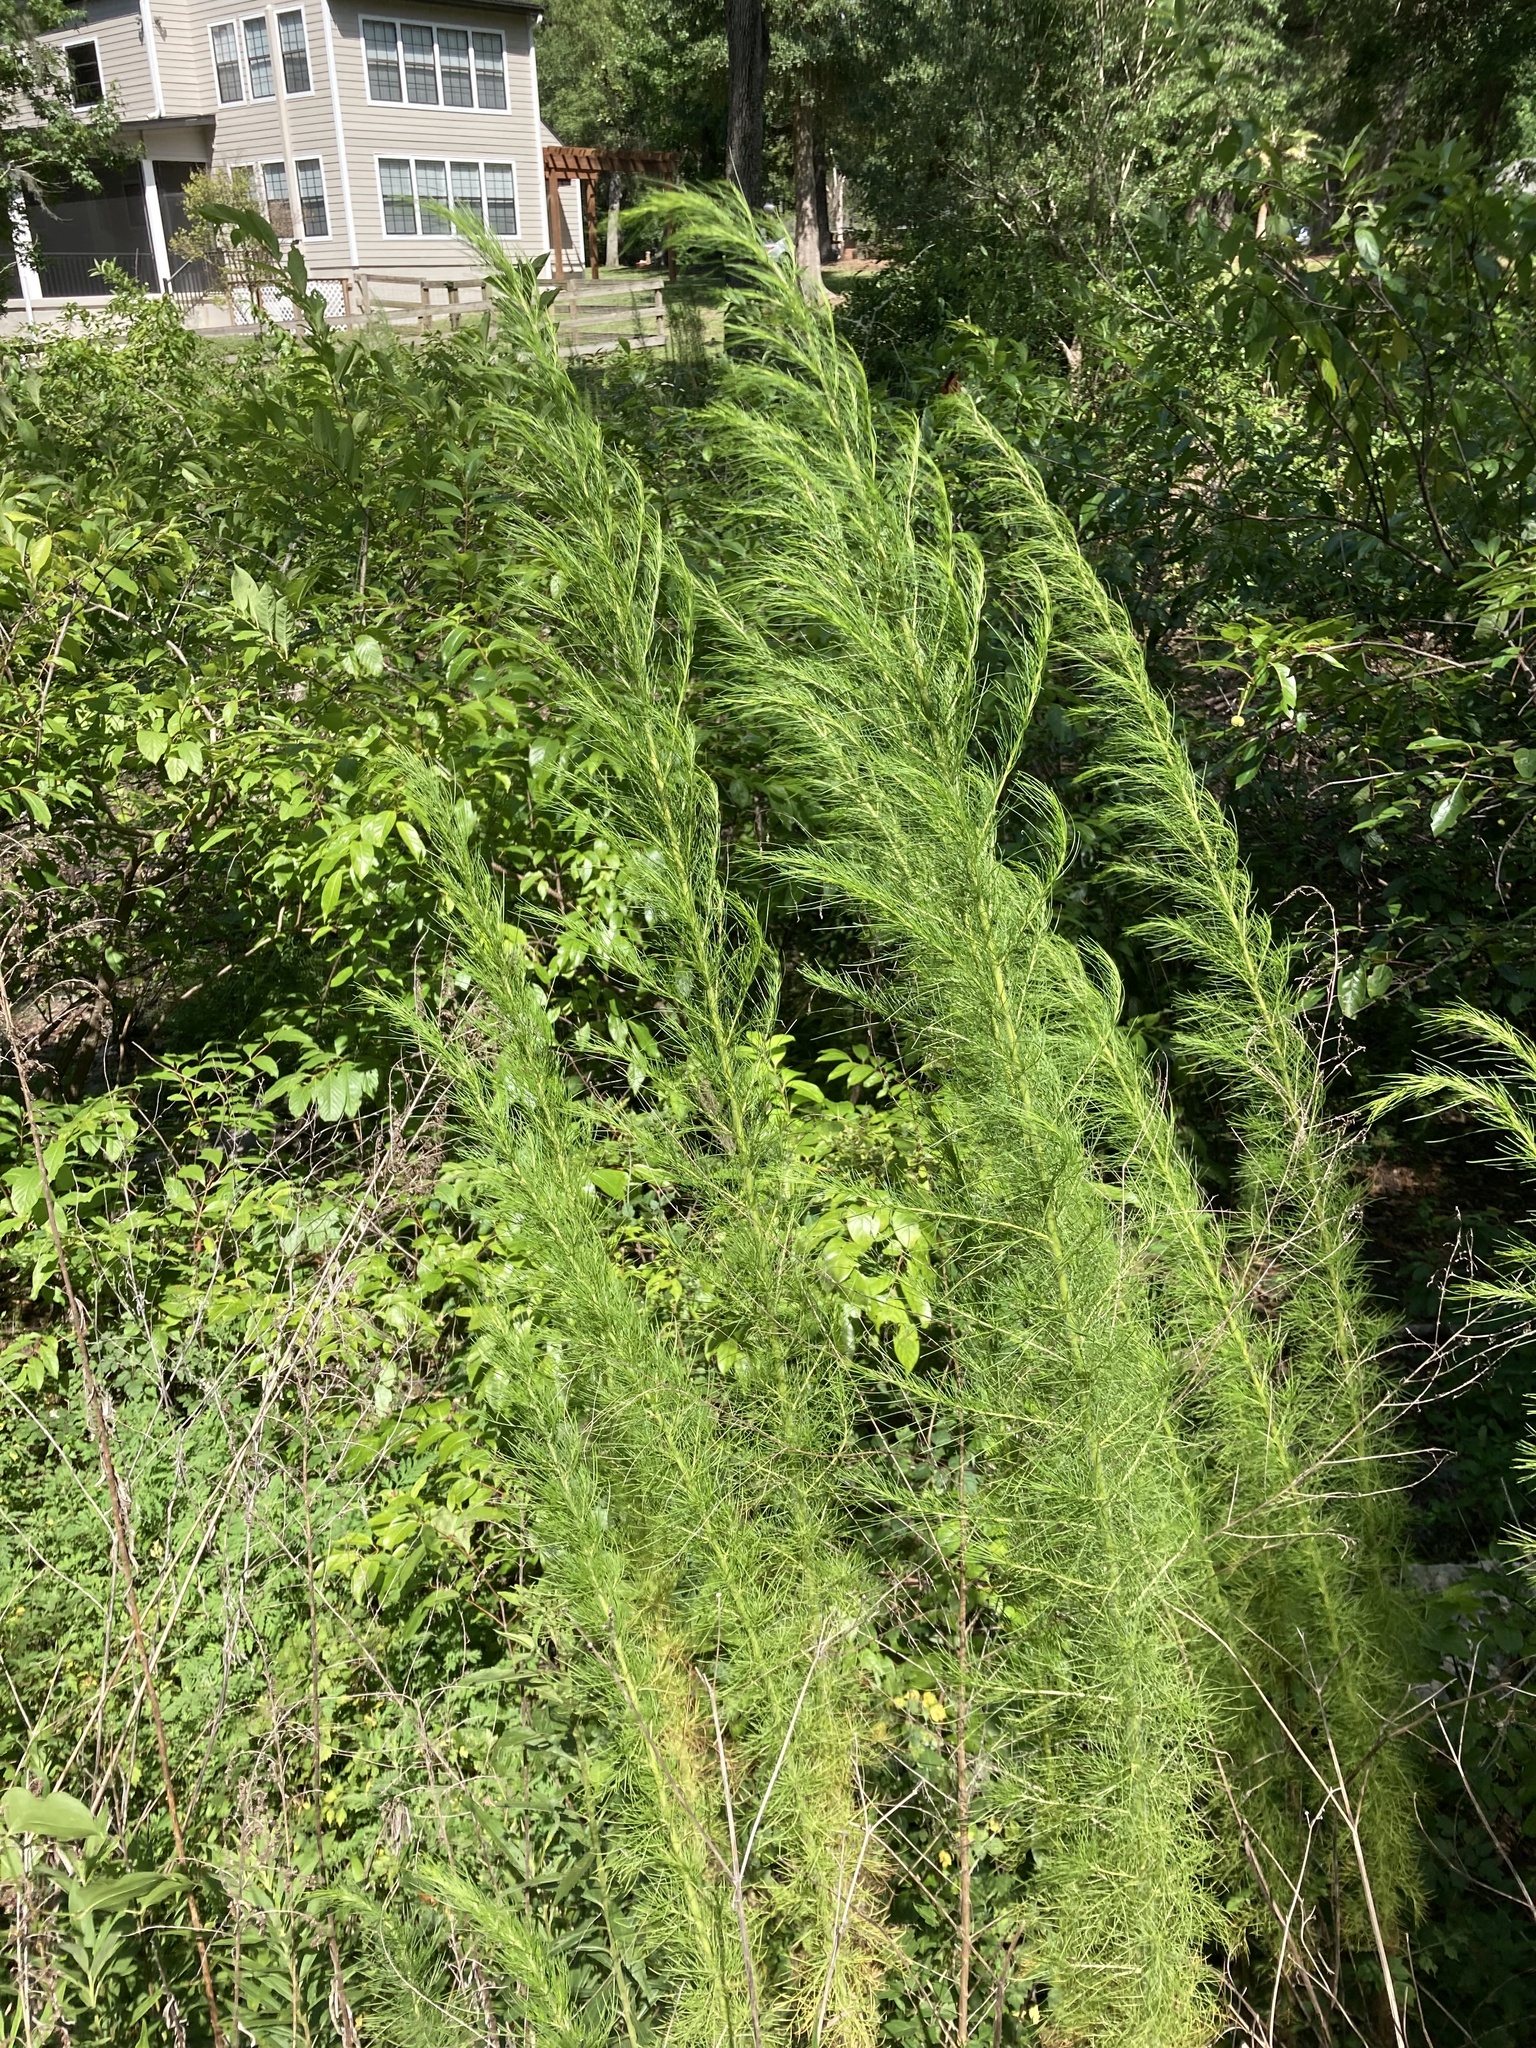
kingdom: Plantae
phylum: Tracheophyta
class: Magnoliopsida
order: Asterales
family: Asteraceae
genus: Eupatorium
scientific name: Eupatorium capillifolium
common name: Dog-fennel
